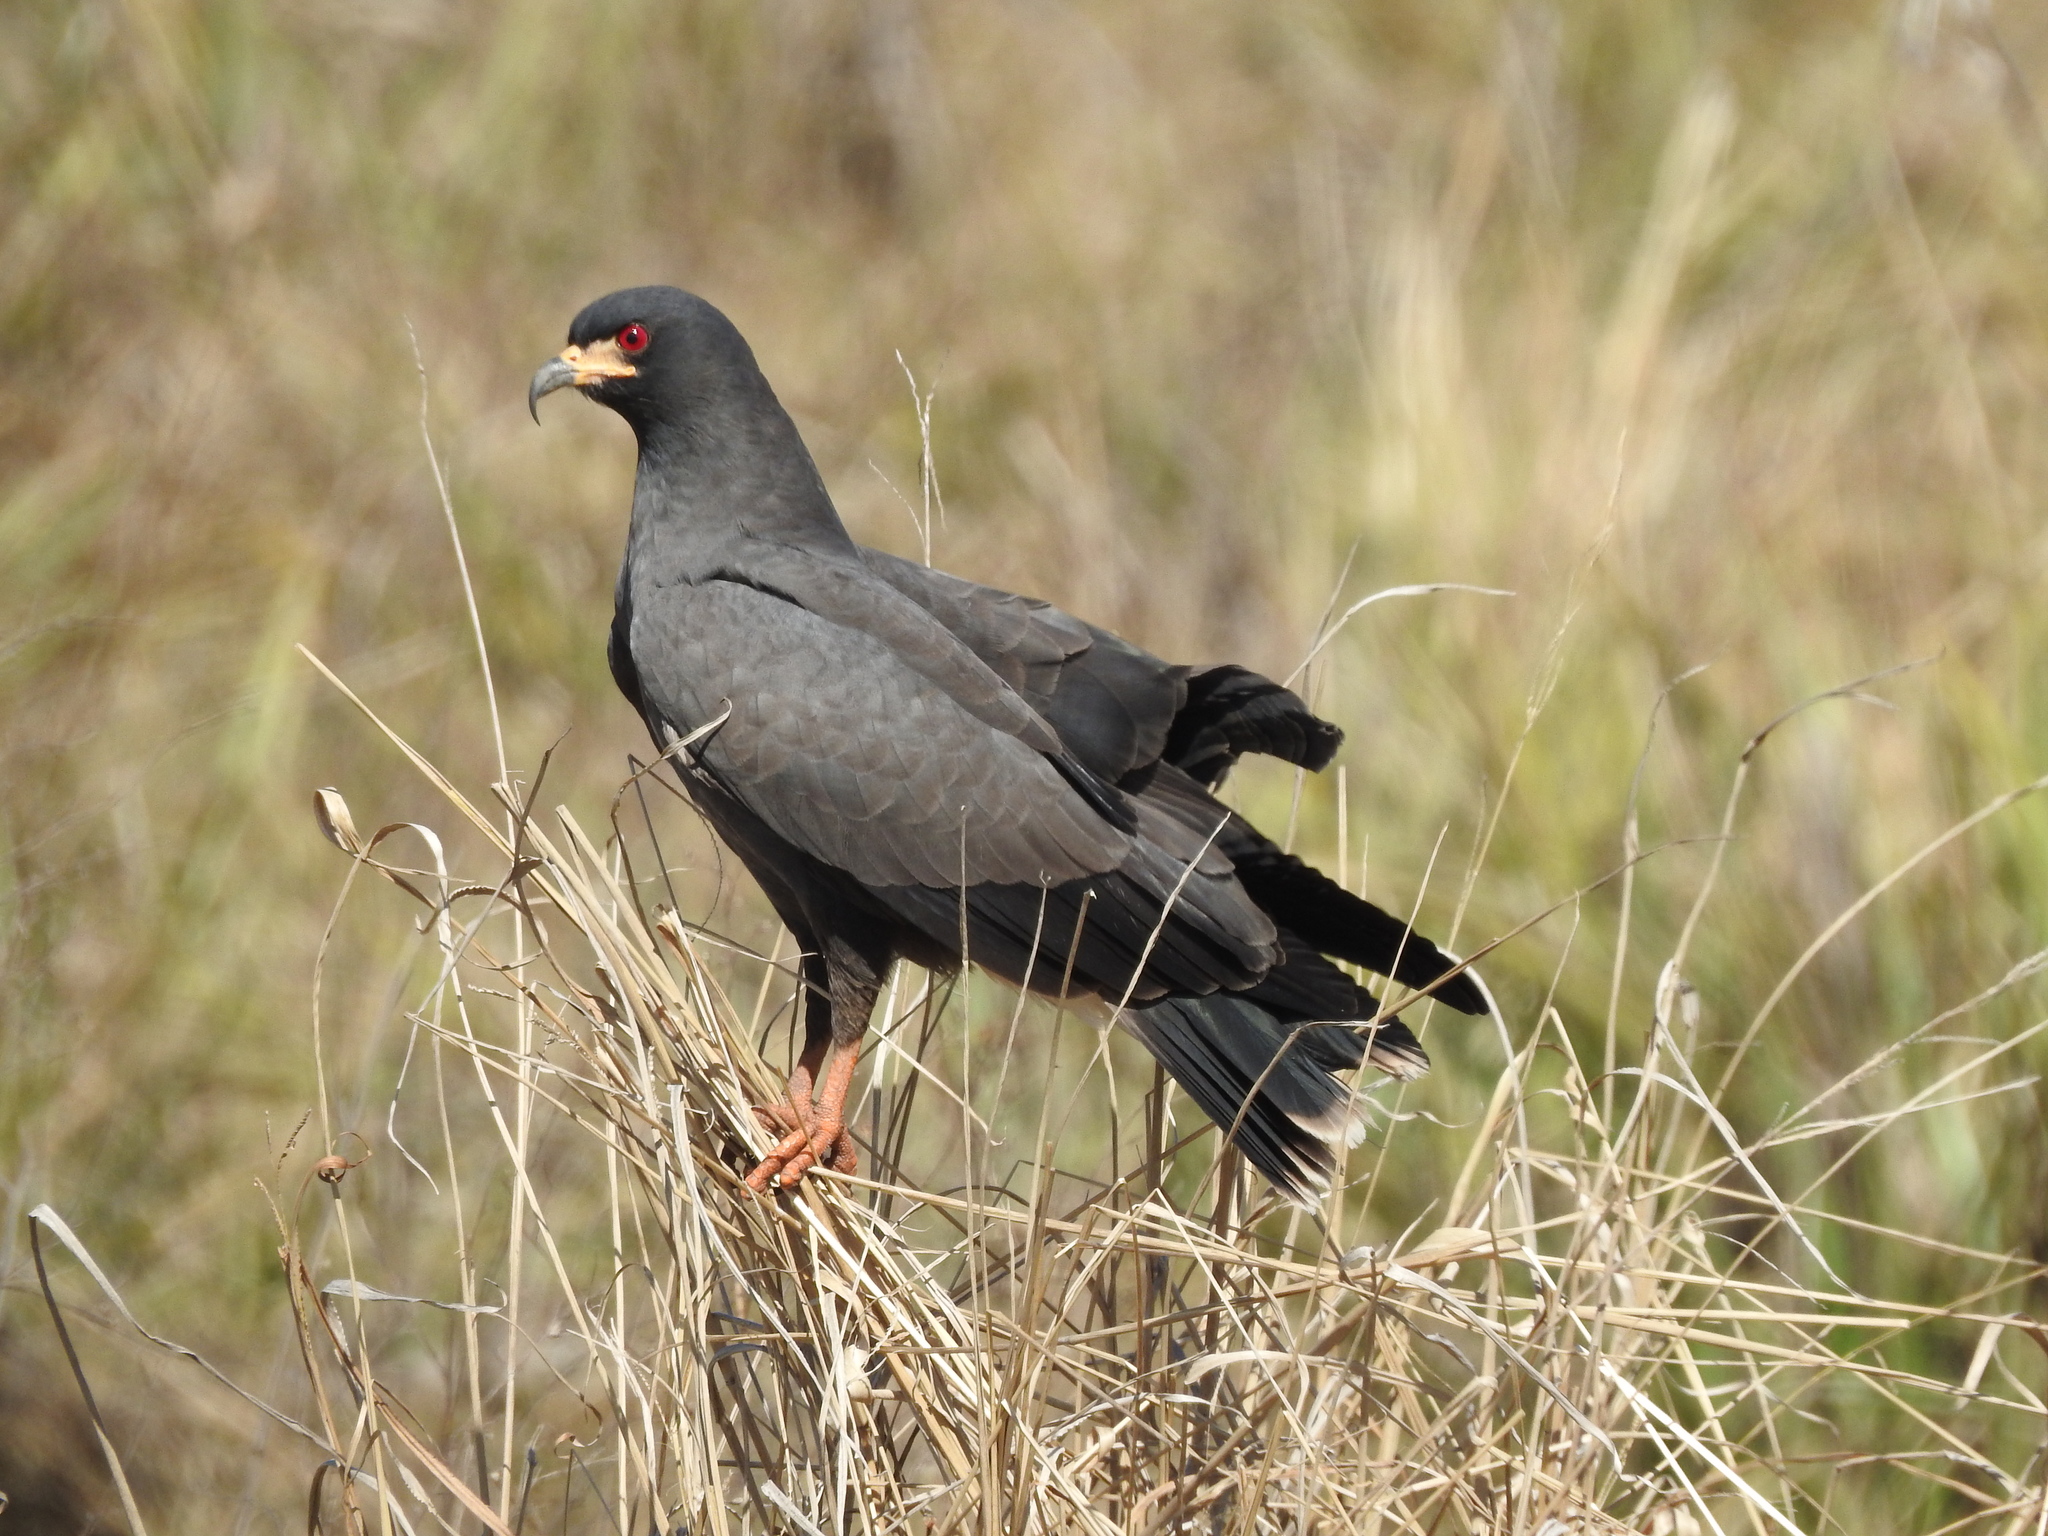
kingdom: Animalia
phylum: Chordata
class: Aves
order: Accipitriformes
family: Accipitridae
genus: Rostrhamus
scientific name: Rostrhamus sociabilis
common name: Snail kite
